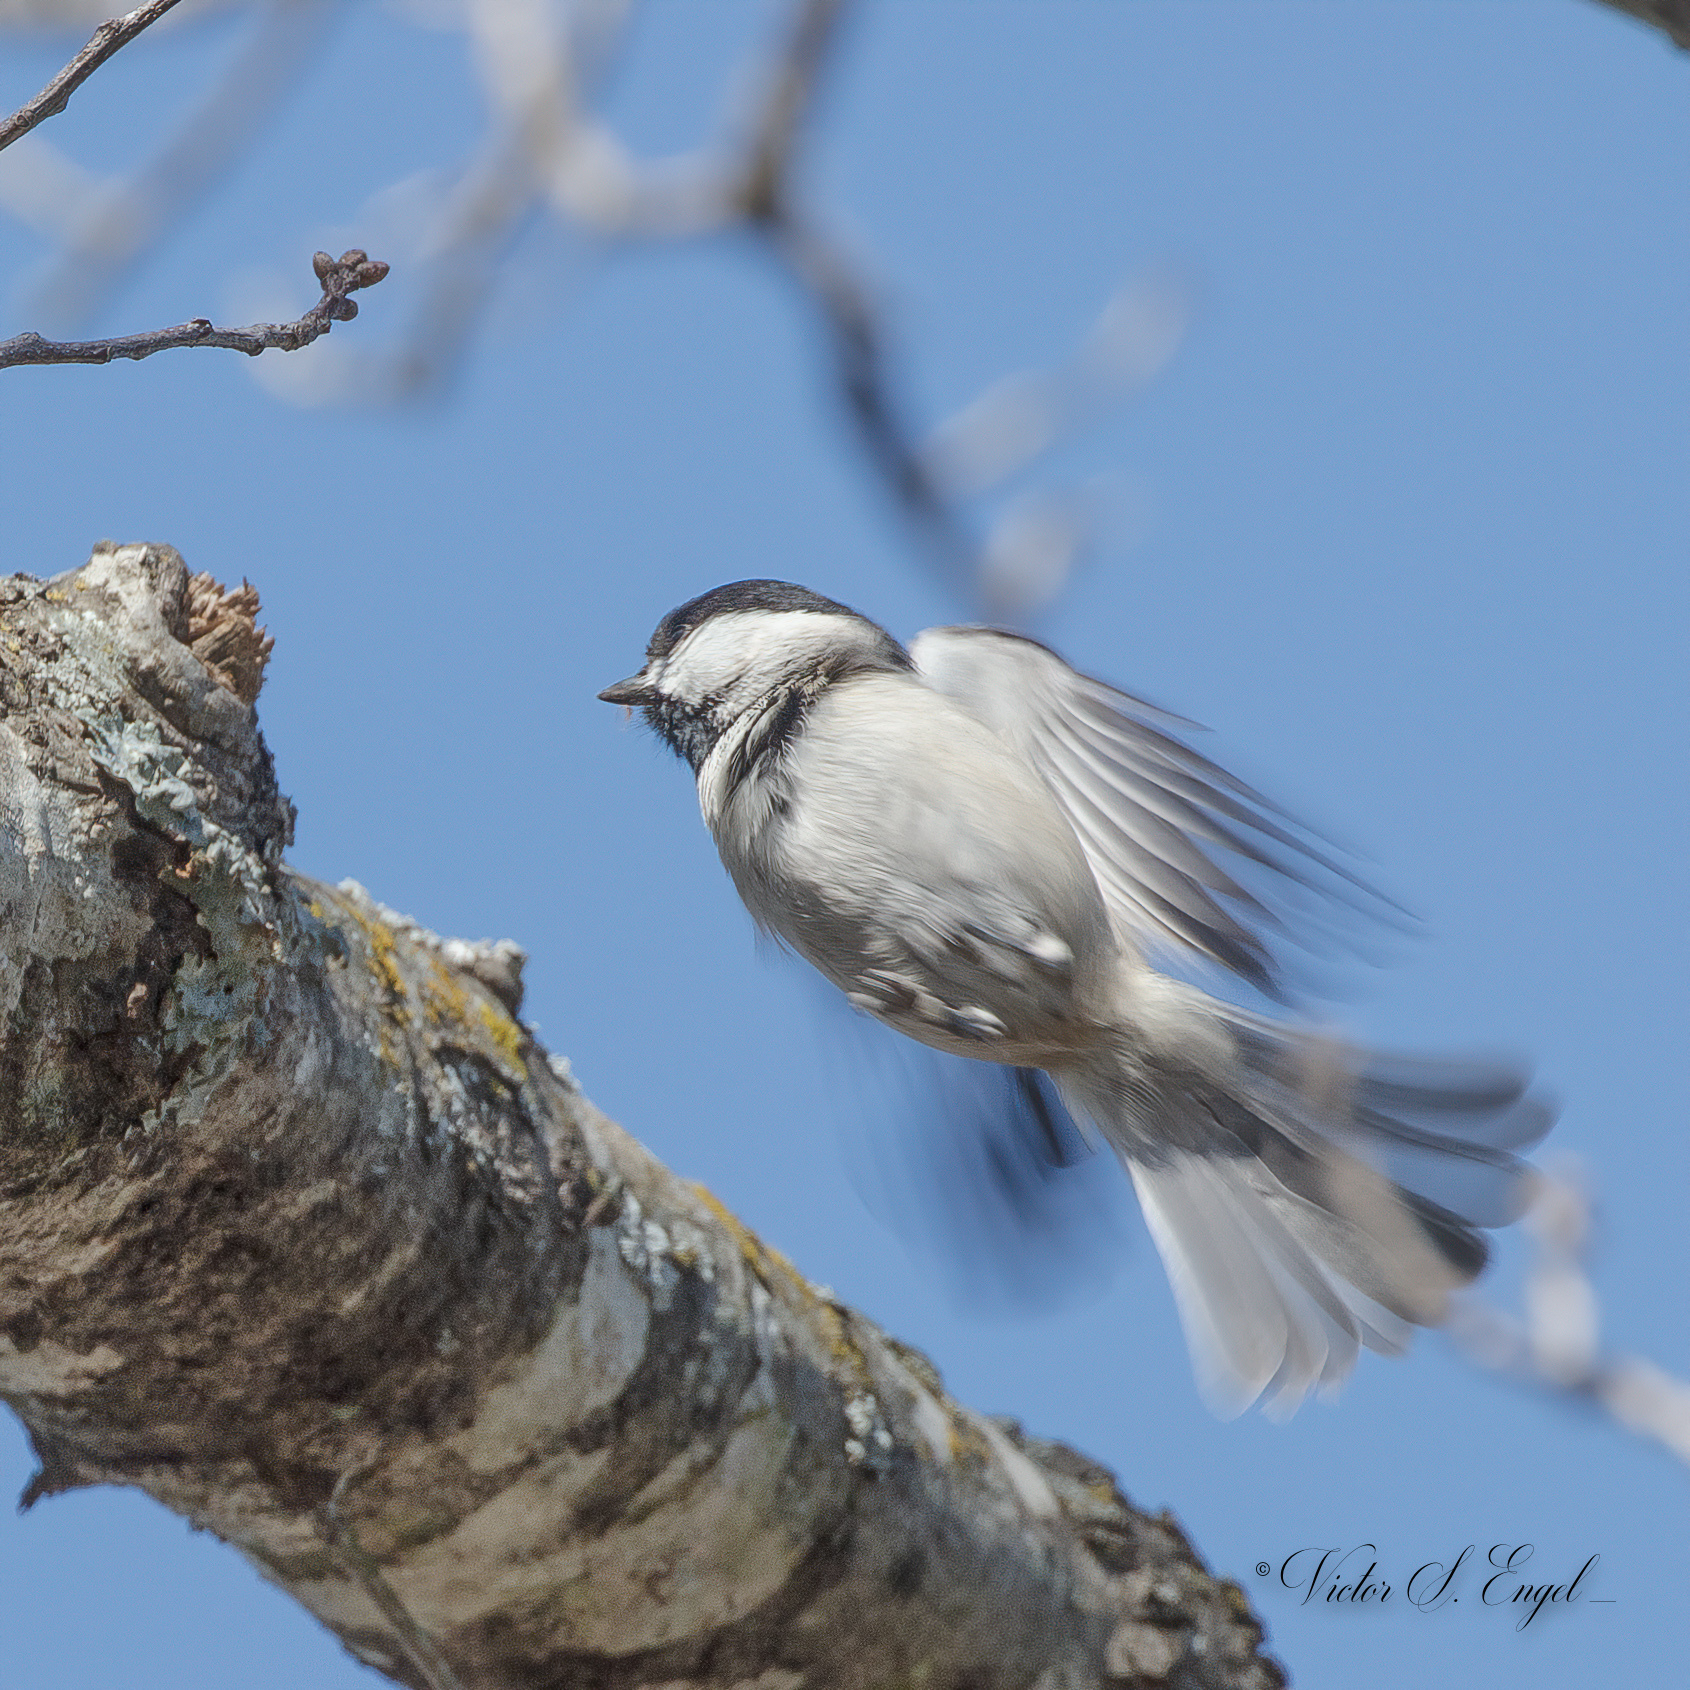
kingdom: Animalia
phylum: Chordata
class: Aves
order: Passeriformes
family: Paridae
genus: Poecile
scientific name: Poecile carolinensis
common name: Carolina chickadee
